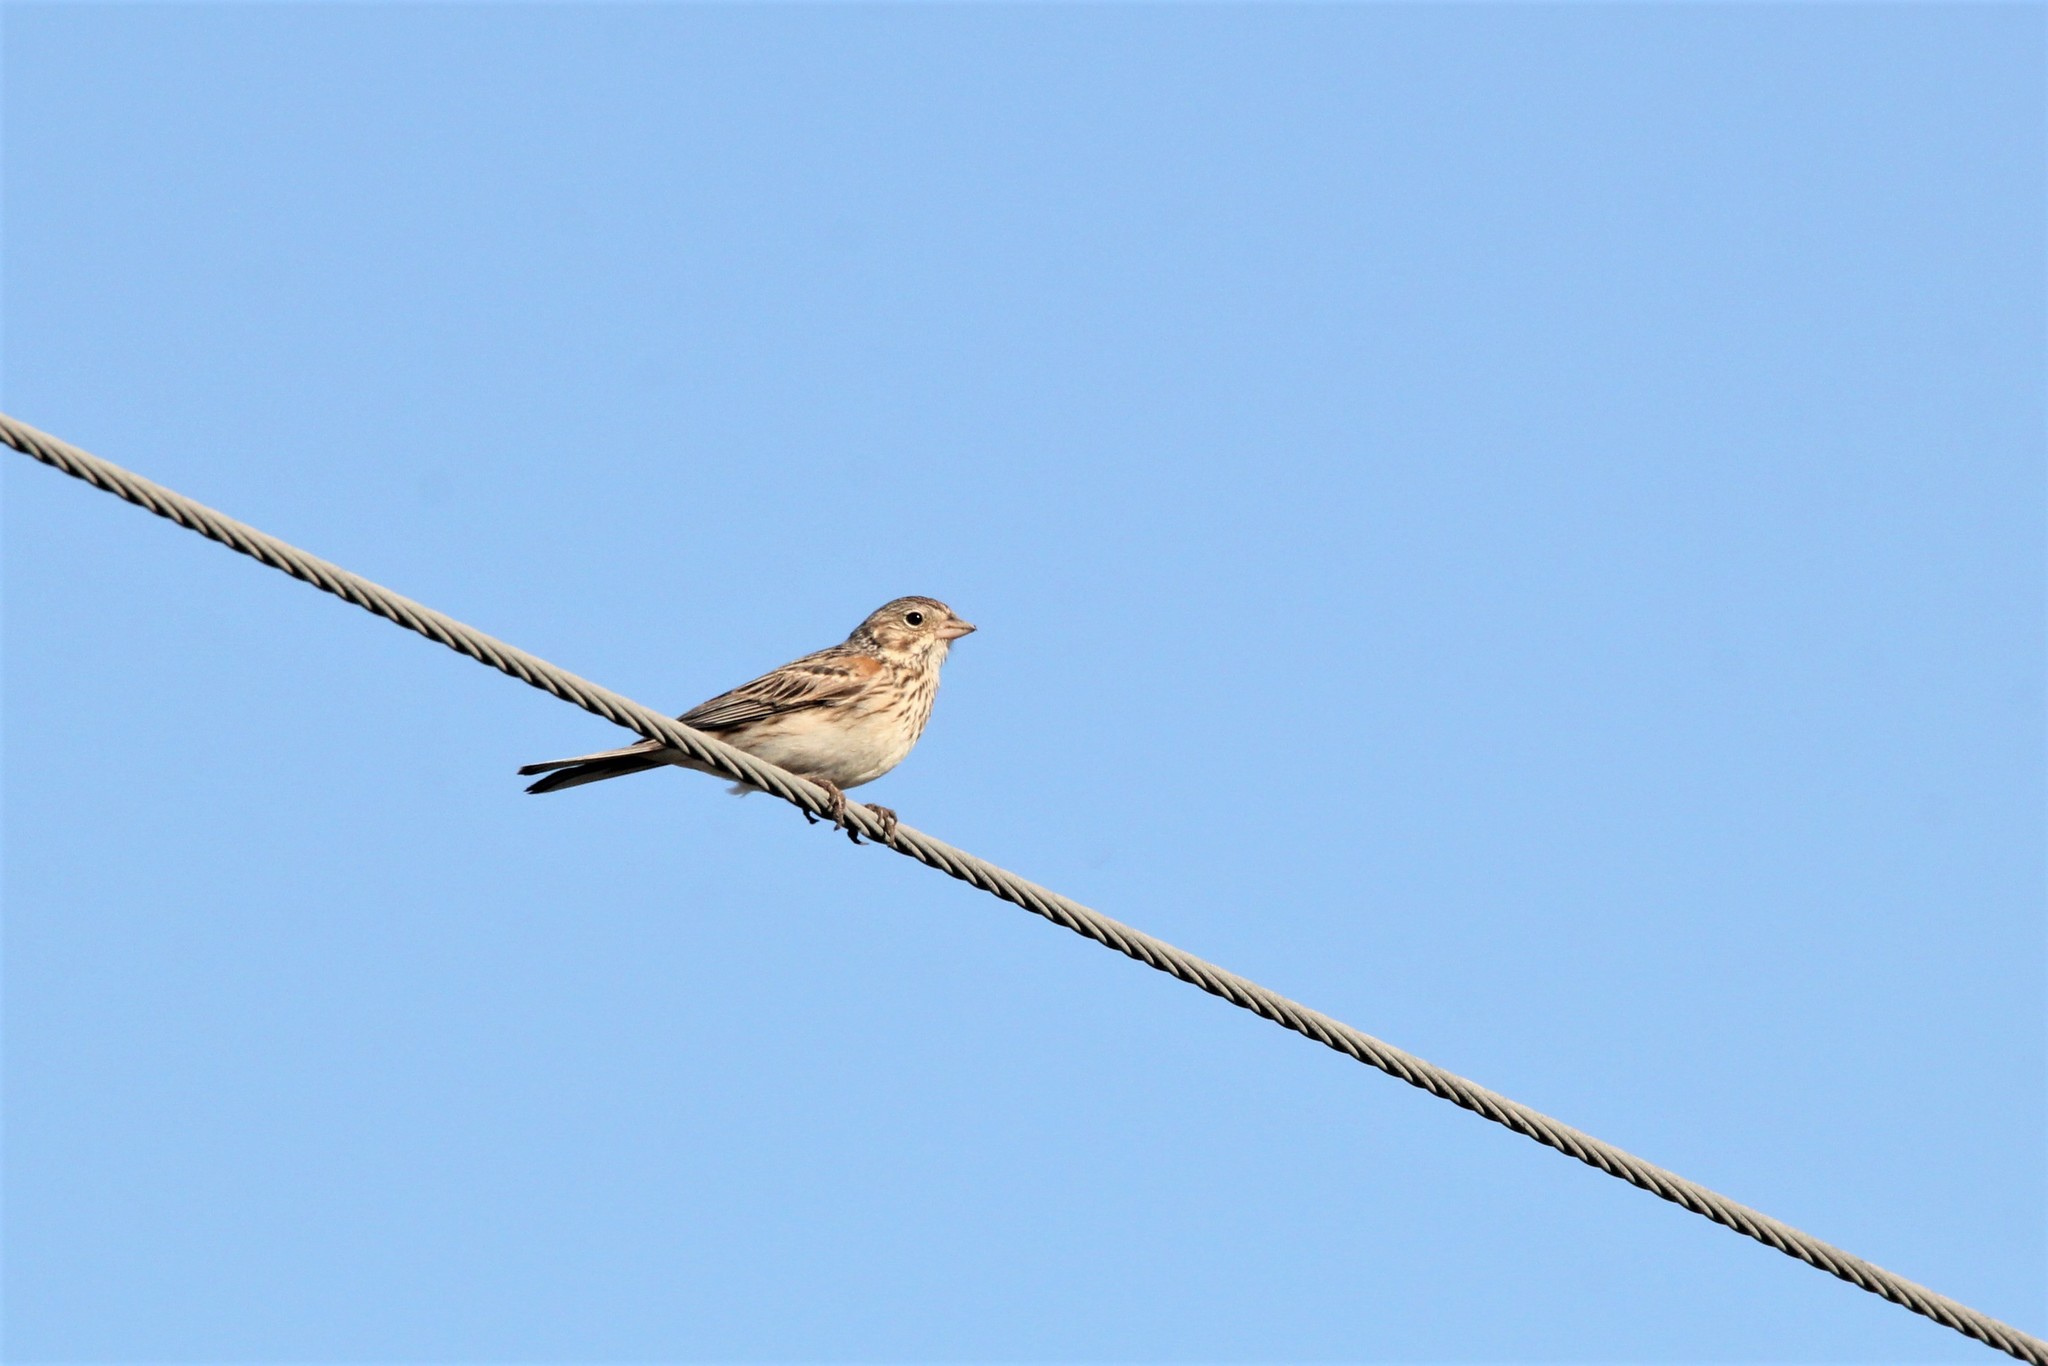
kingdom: Animalia
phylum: Chordata
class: Aves
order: Passeriformes
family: Passerellidae
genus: Pooecetes
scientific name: Pooecetes gramineus
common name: Vesper sparrow
